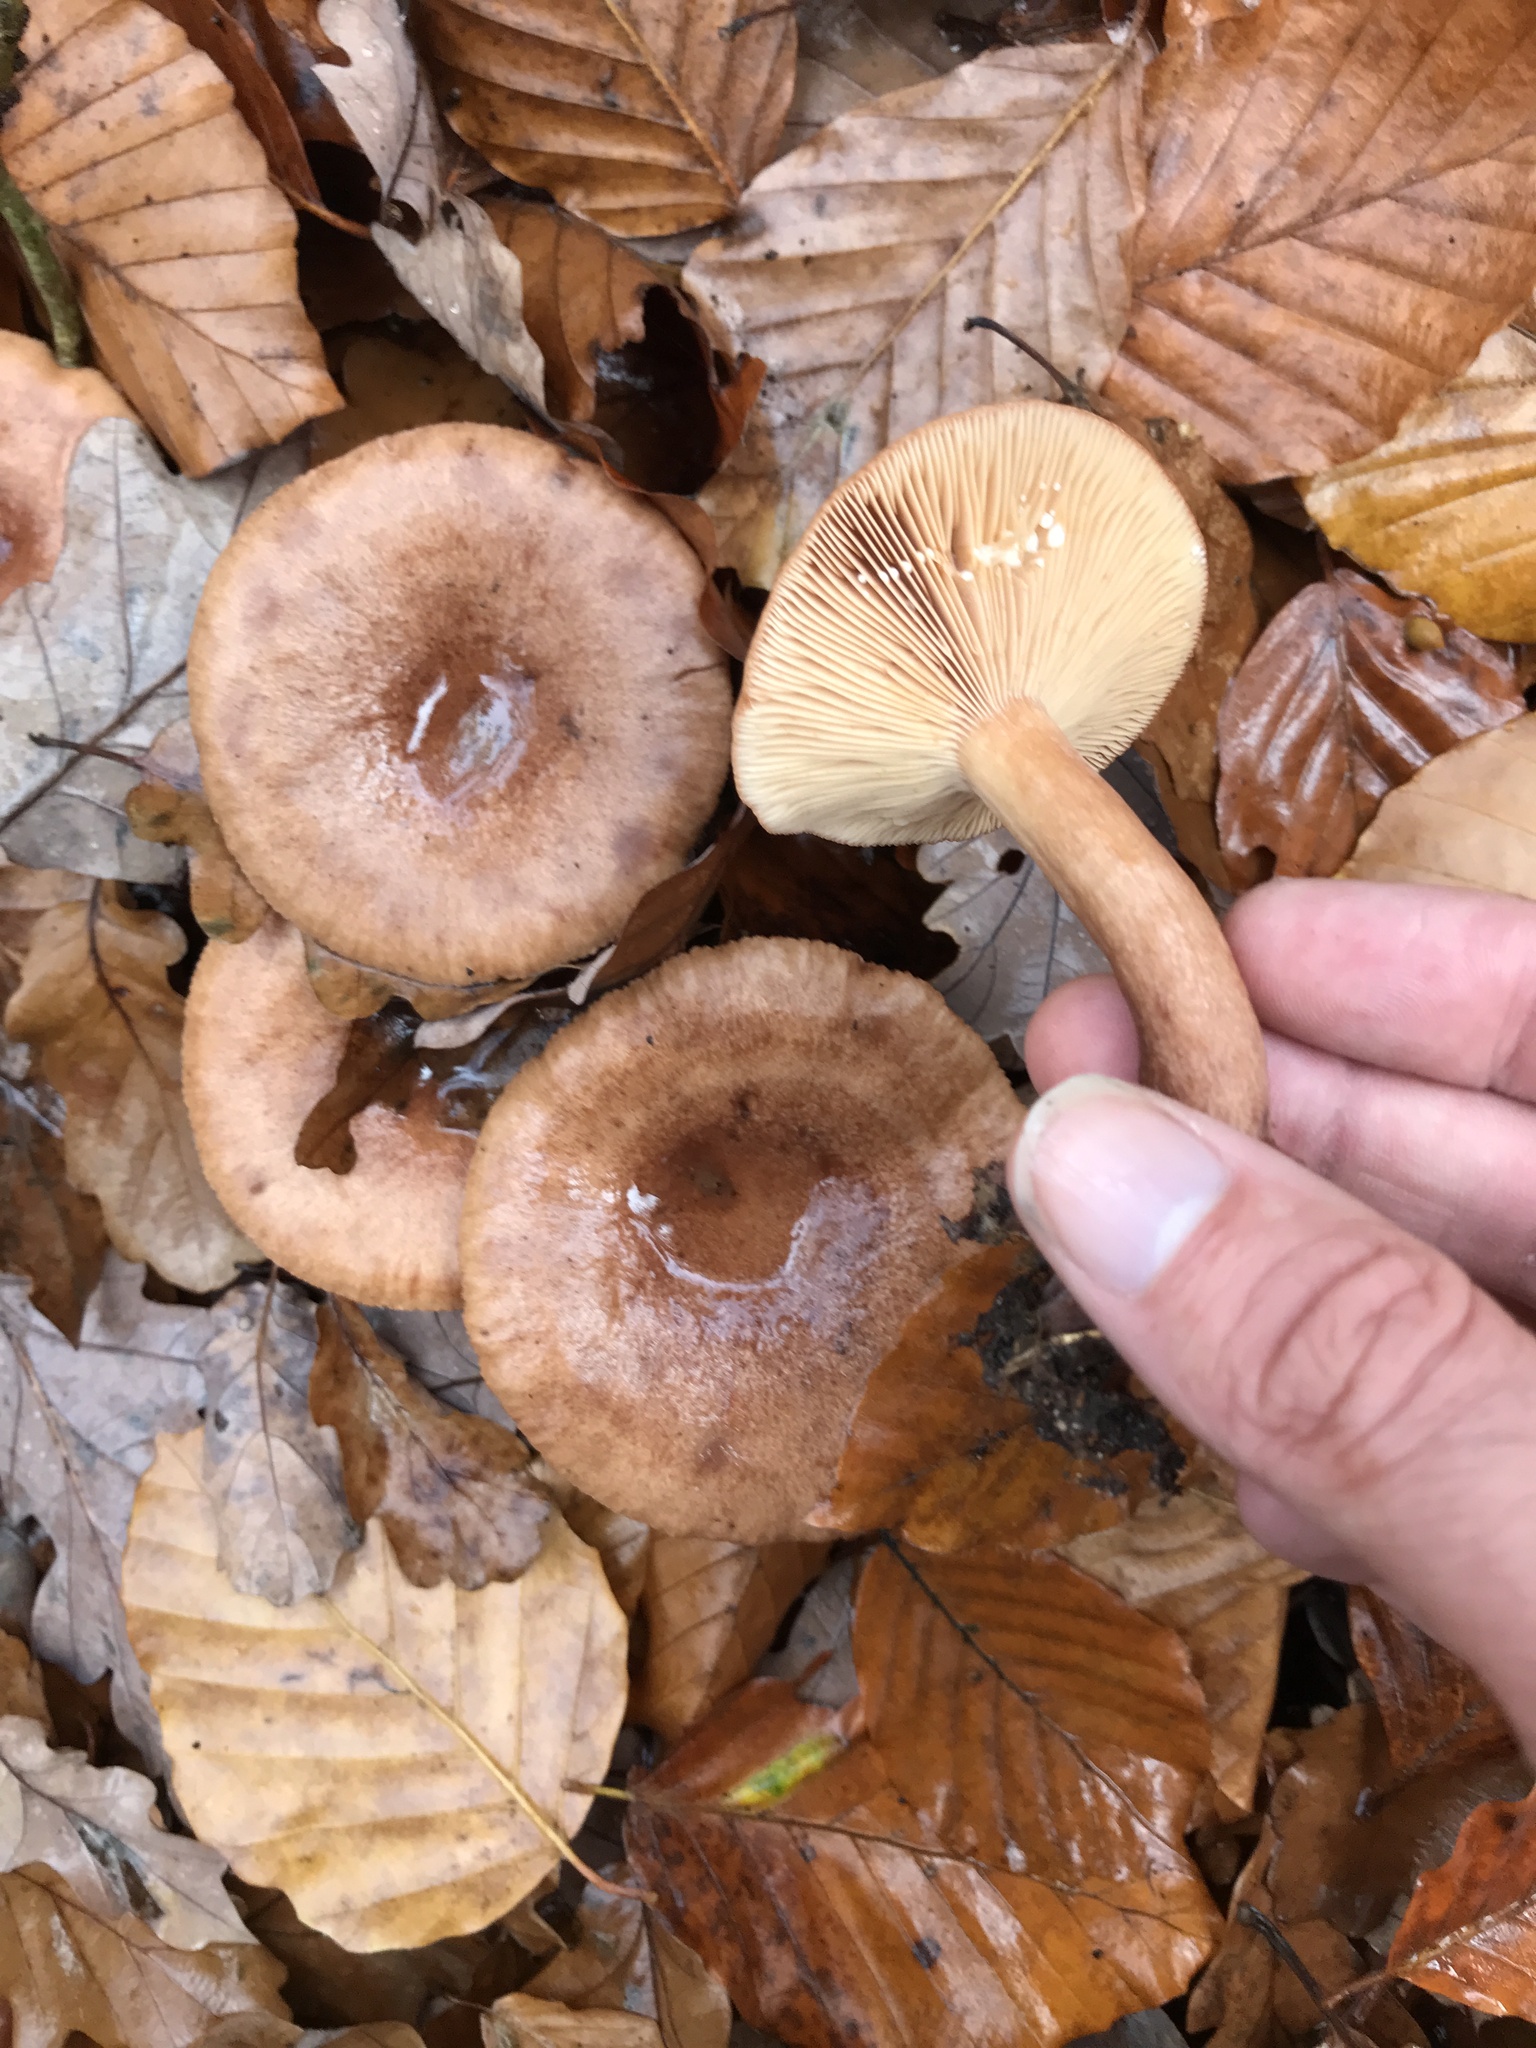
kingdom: Fungi
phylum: Basidiomycota
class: Agaricomycetes
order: Russulales
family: Russulaceae
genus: Lactarius
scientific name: Lactarius quietus
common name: Oak milk-cap
